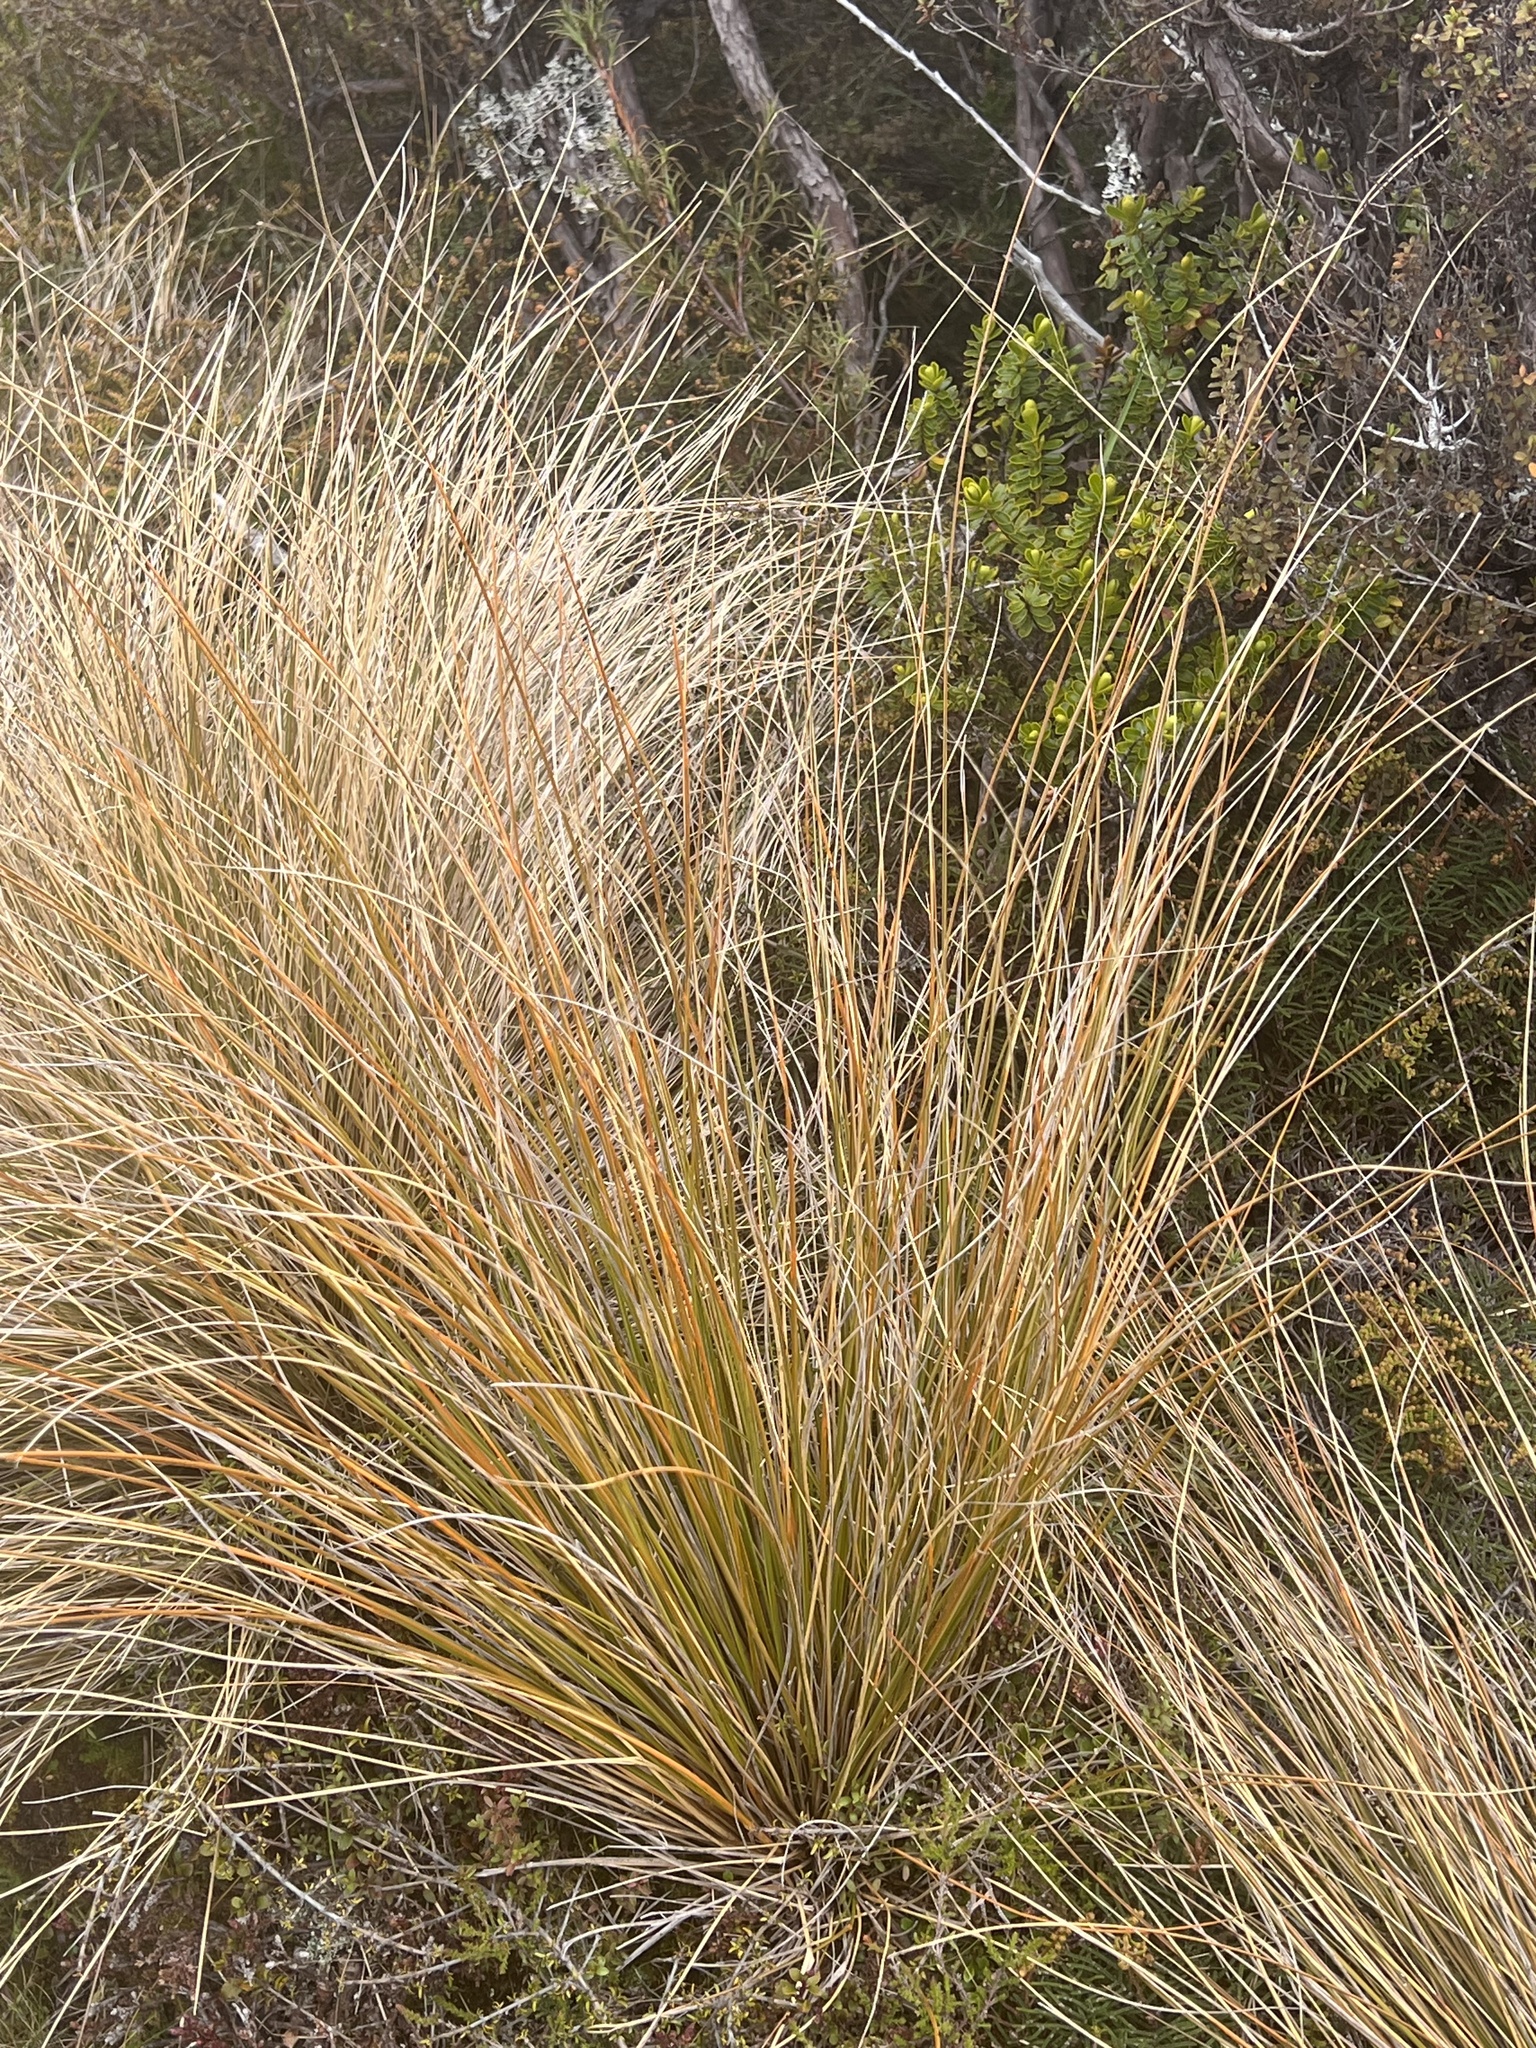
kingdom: Plantae
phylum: Tracheophyta
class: Liliopsida
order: Poales
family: Poaceae
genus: Chionochloa
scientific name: Chionochloa rubra
